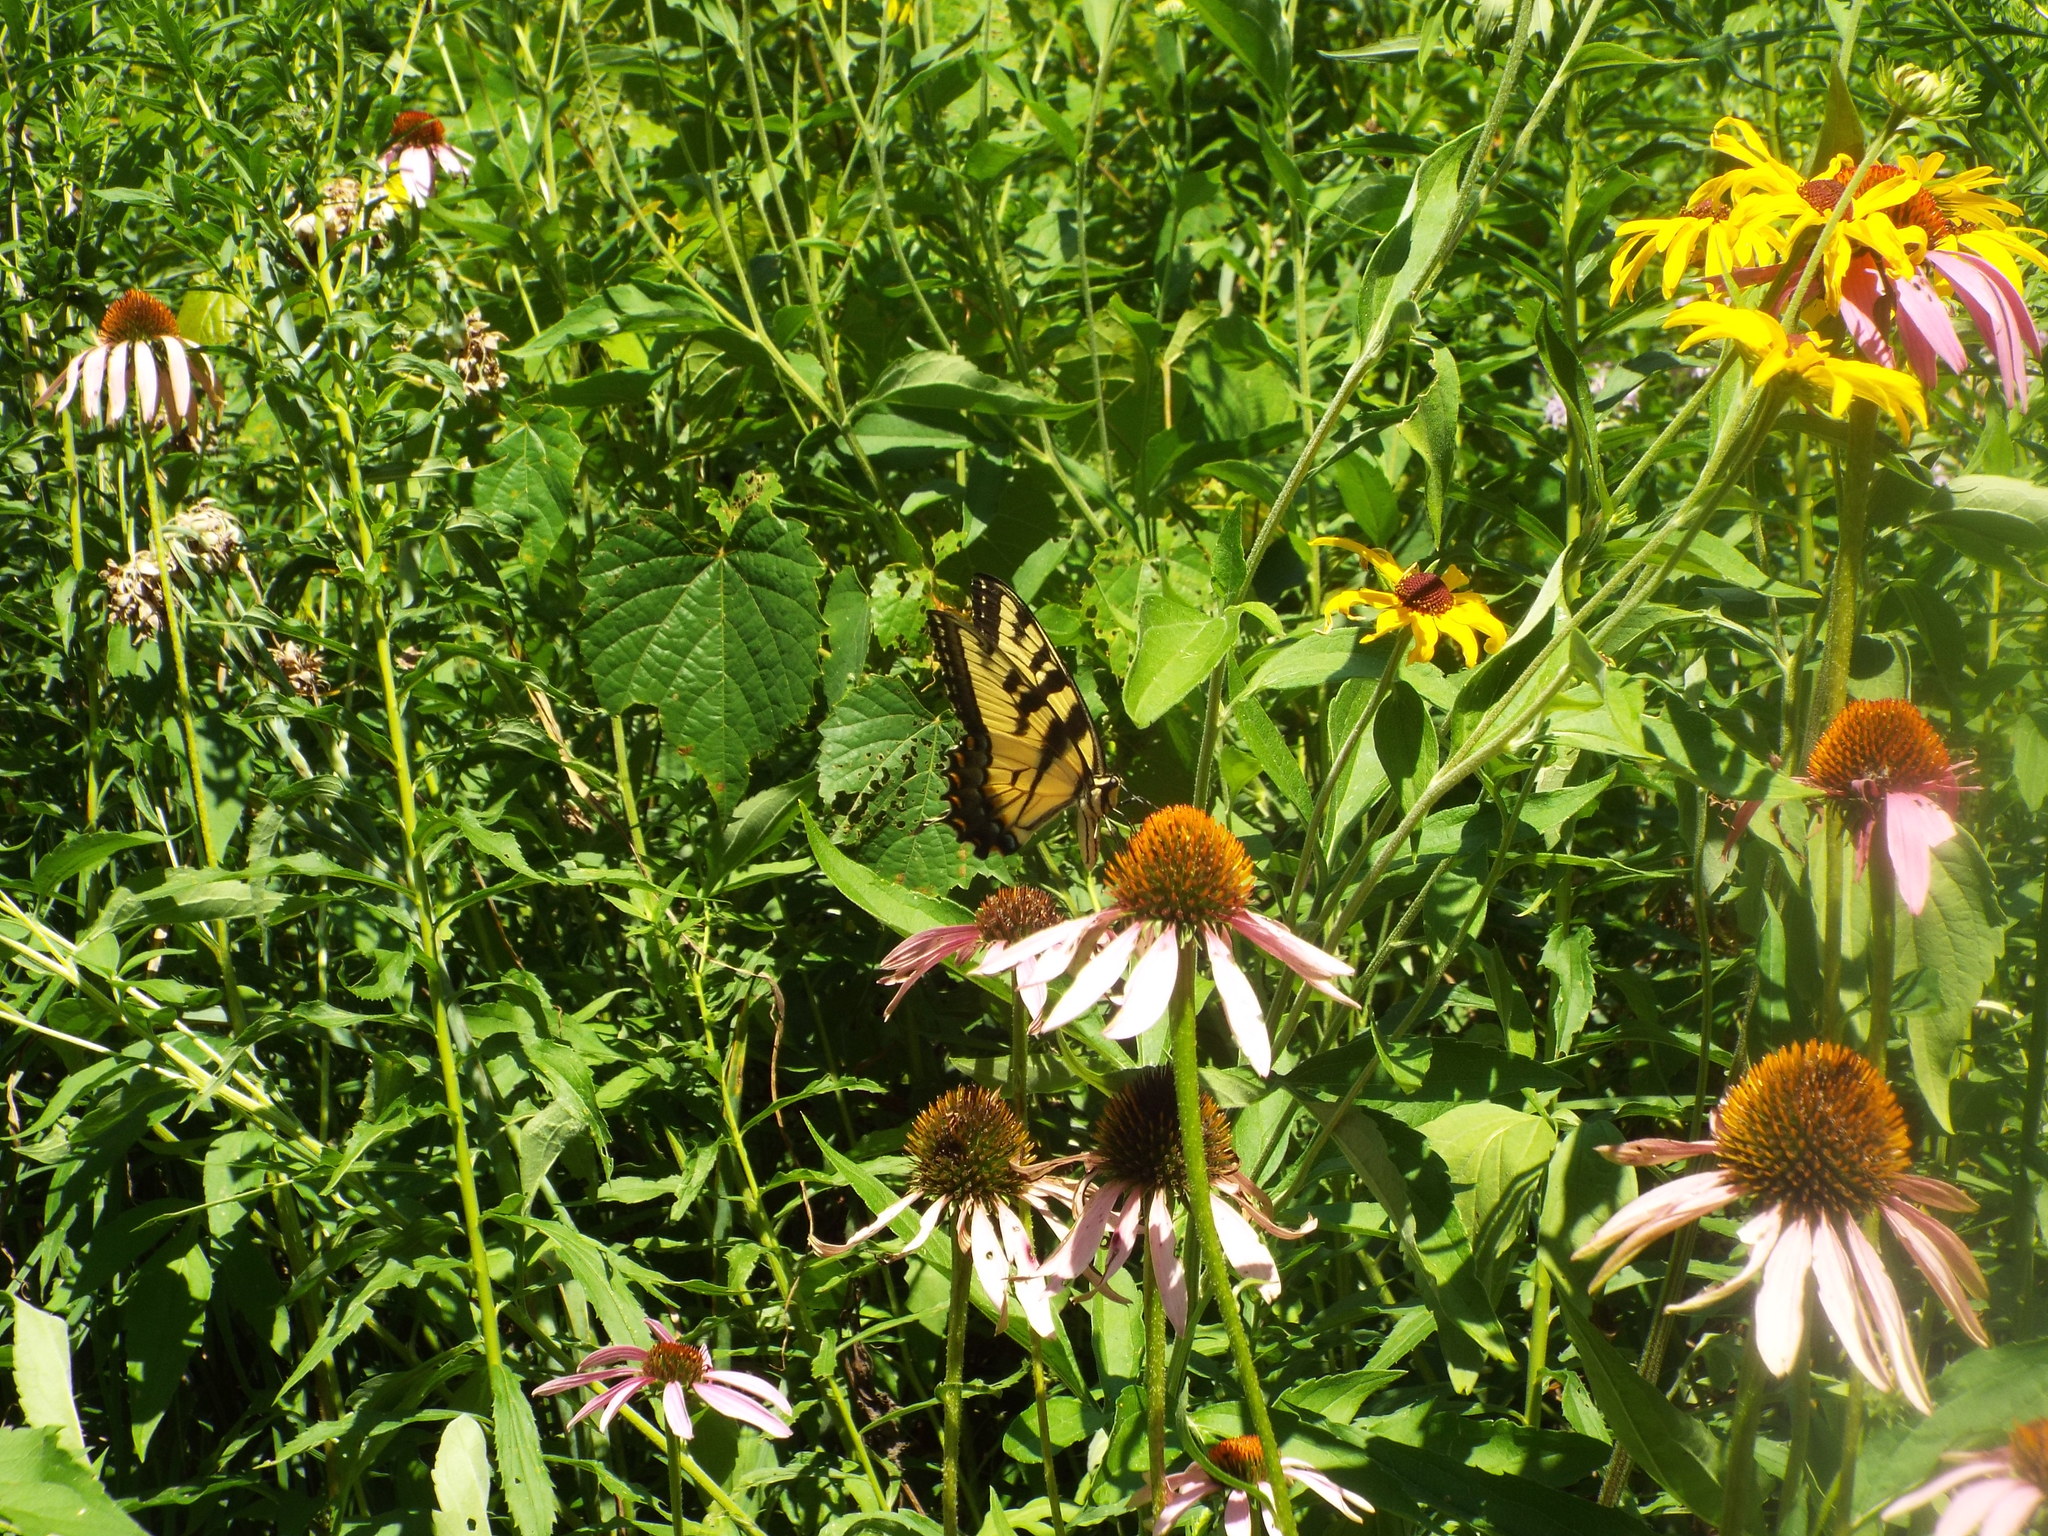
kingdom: Animalia
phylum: Arthropoda
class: Insecta
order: Lepidoptera
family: Papilionidae
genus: Papilio
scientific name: Papilio glaucus
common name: Tiger swallowtail
